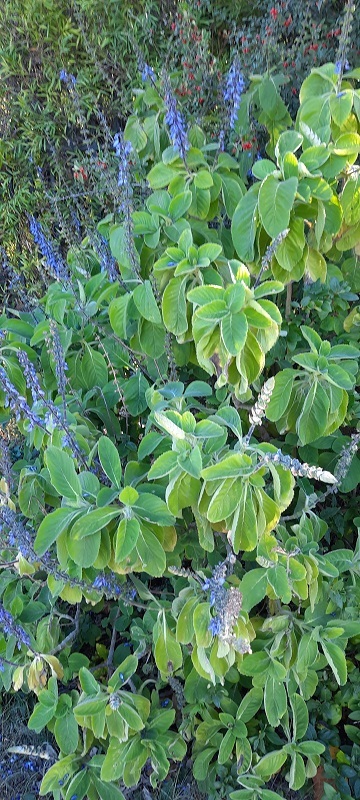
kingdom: Plantae
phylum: Tracheophyta
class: Magnoliopsida
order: Lamiales
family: Lamiaceae
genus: Coleus
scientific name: Coleus barbatus
